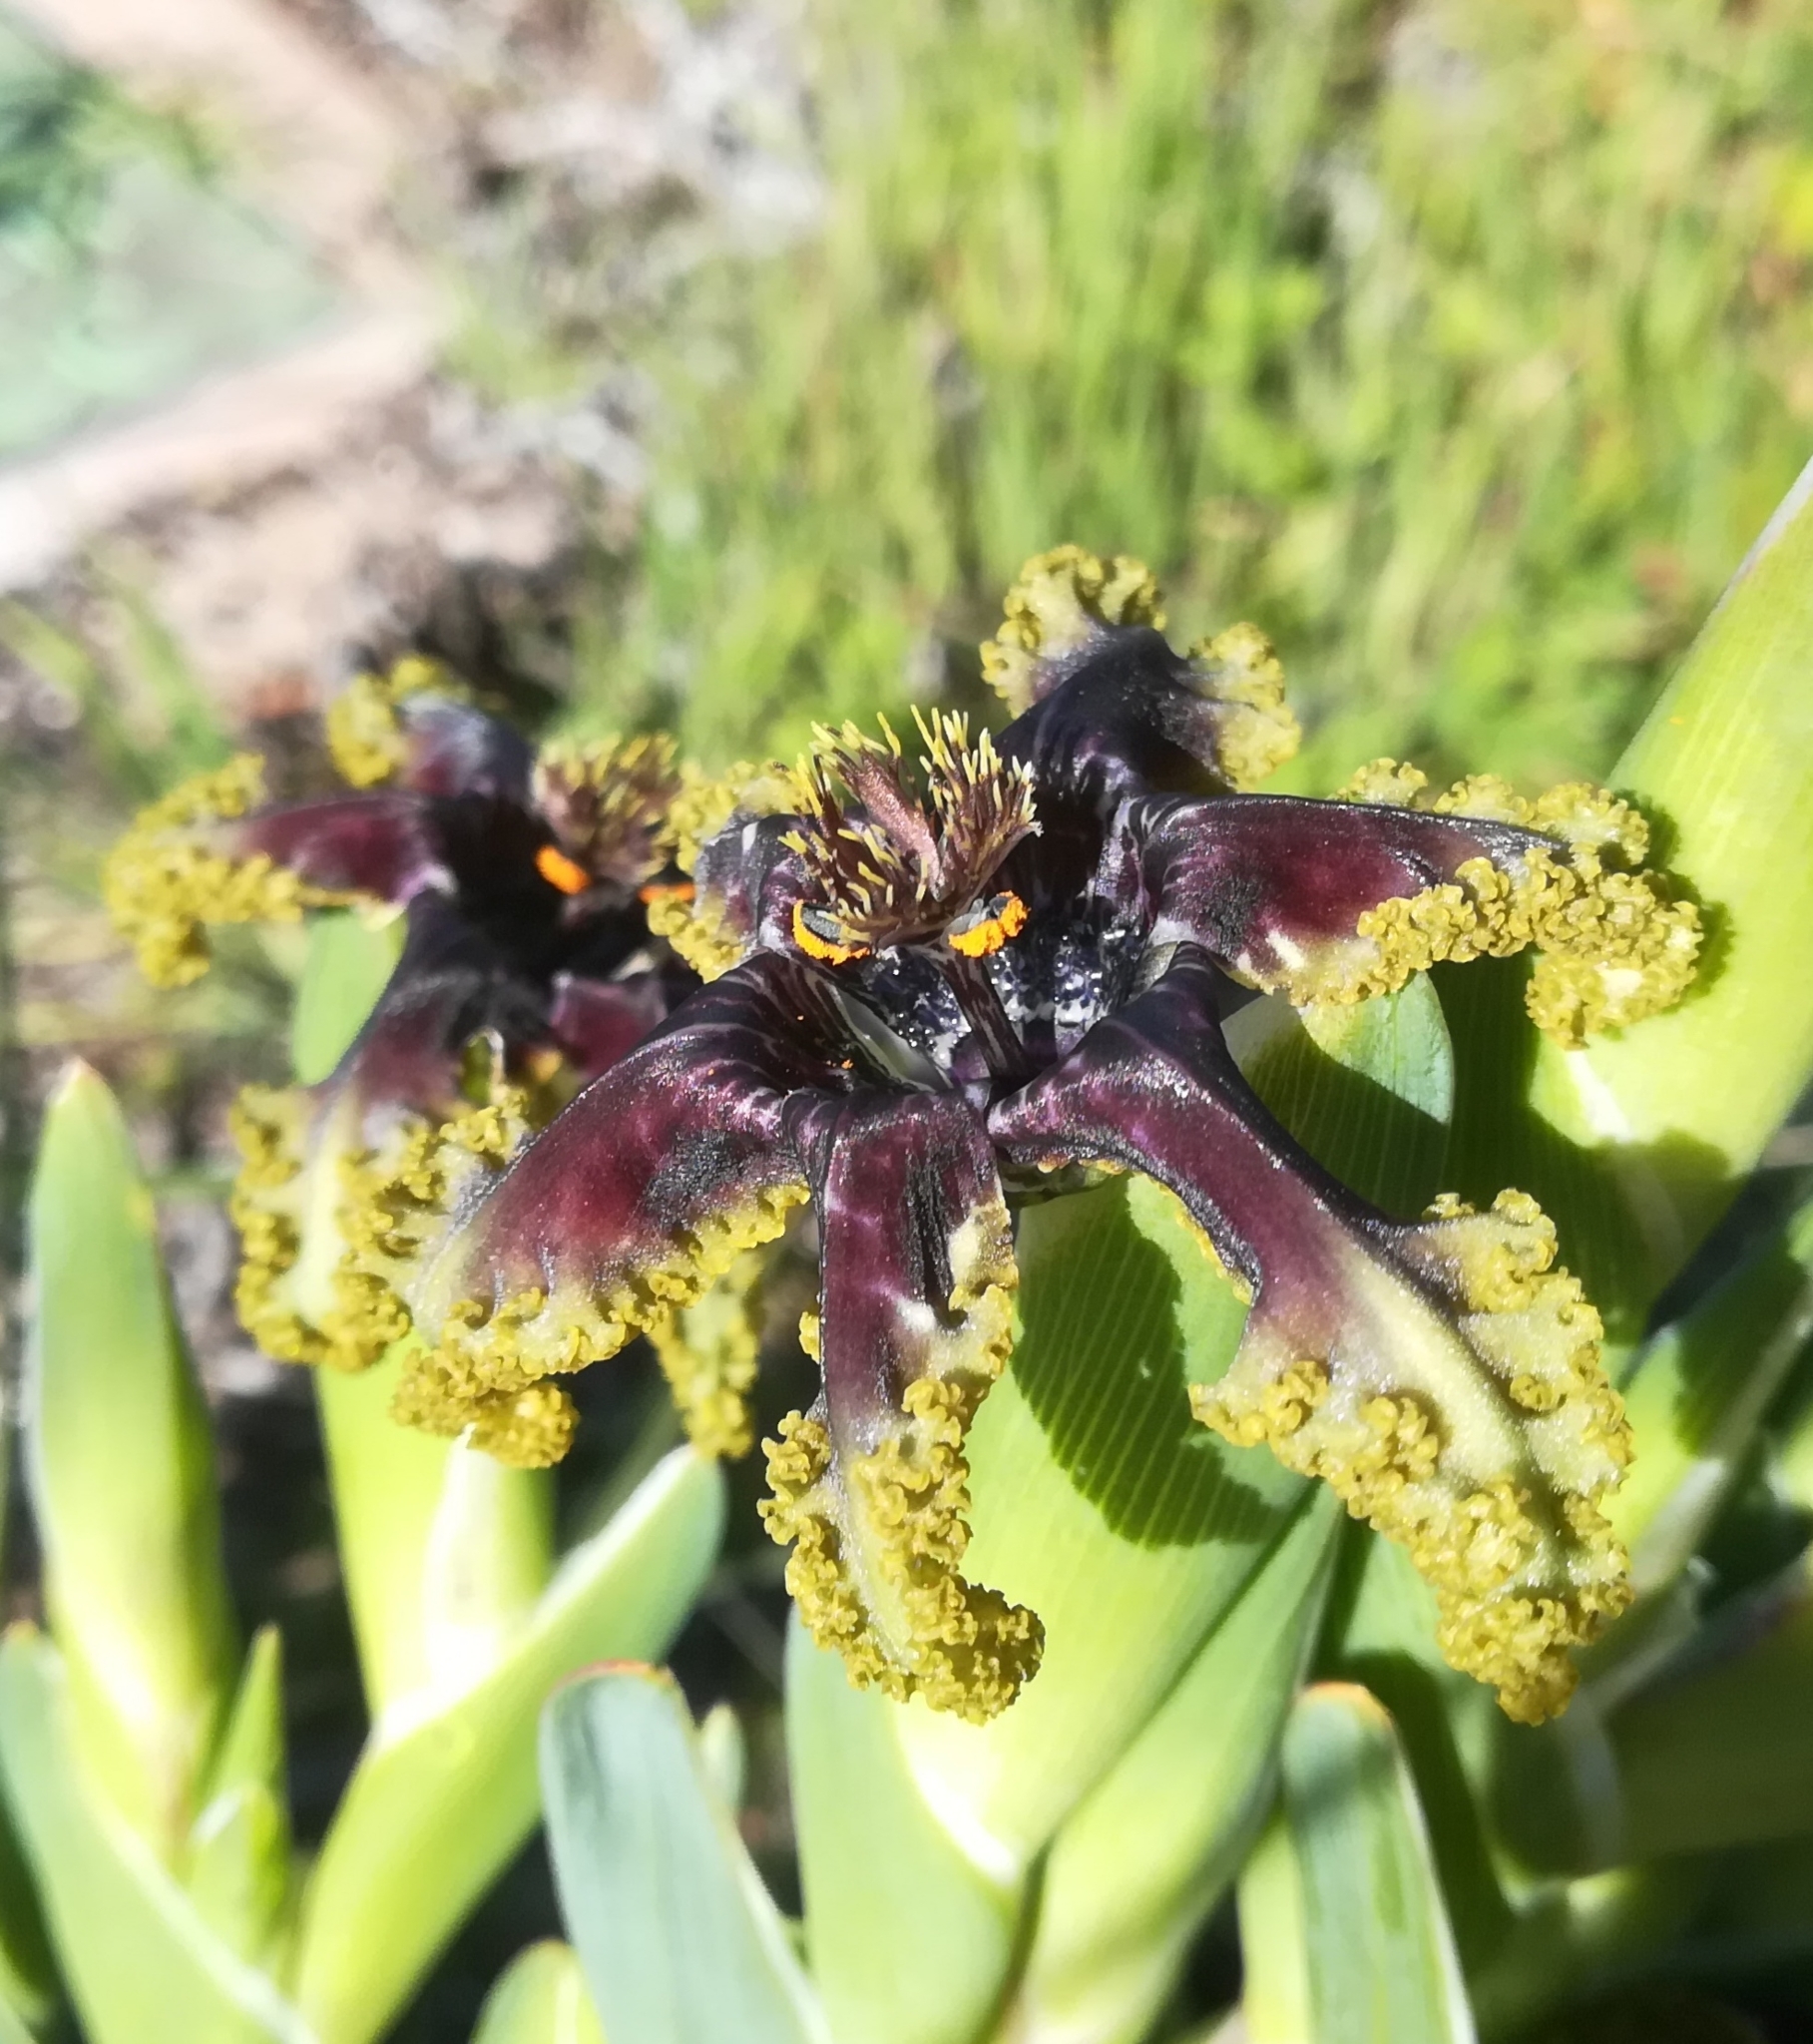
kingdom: Plantae
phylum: Tracheophyta
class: Liliopsida
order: Asparagales
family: Iridaceae
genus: Ferraria
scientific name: Ferraria crispa
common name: Black-flag
